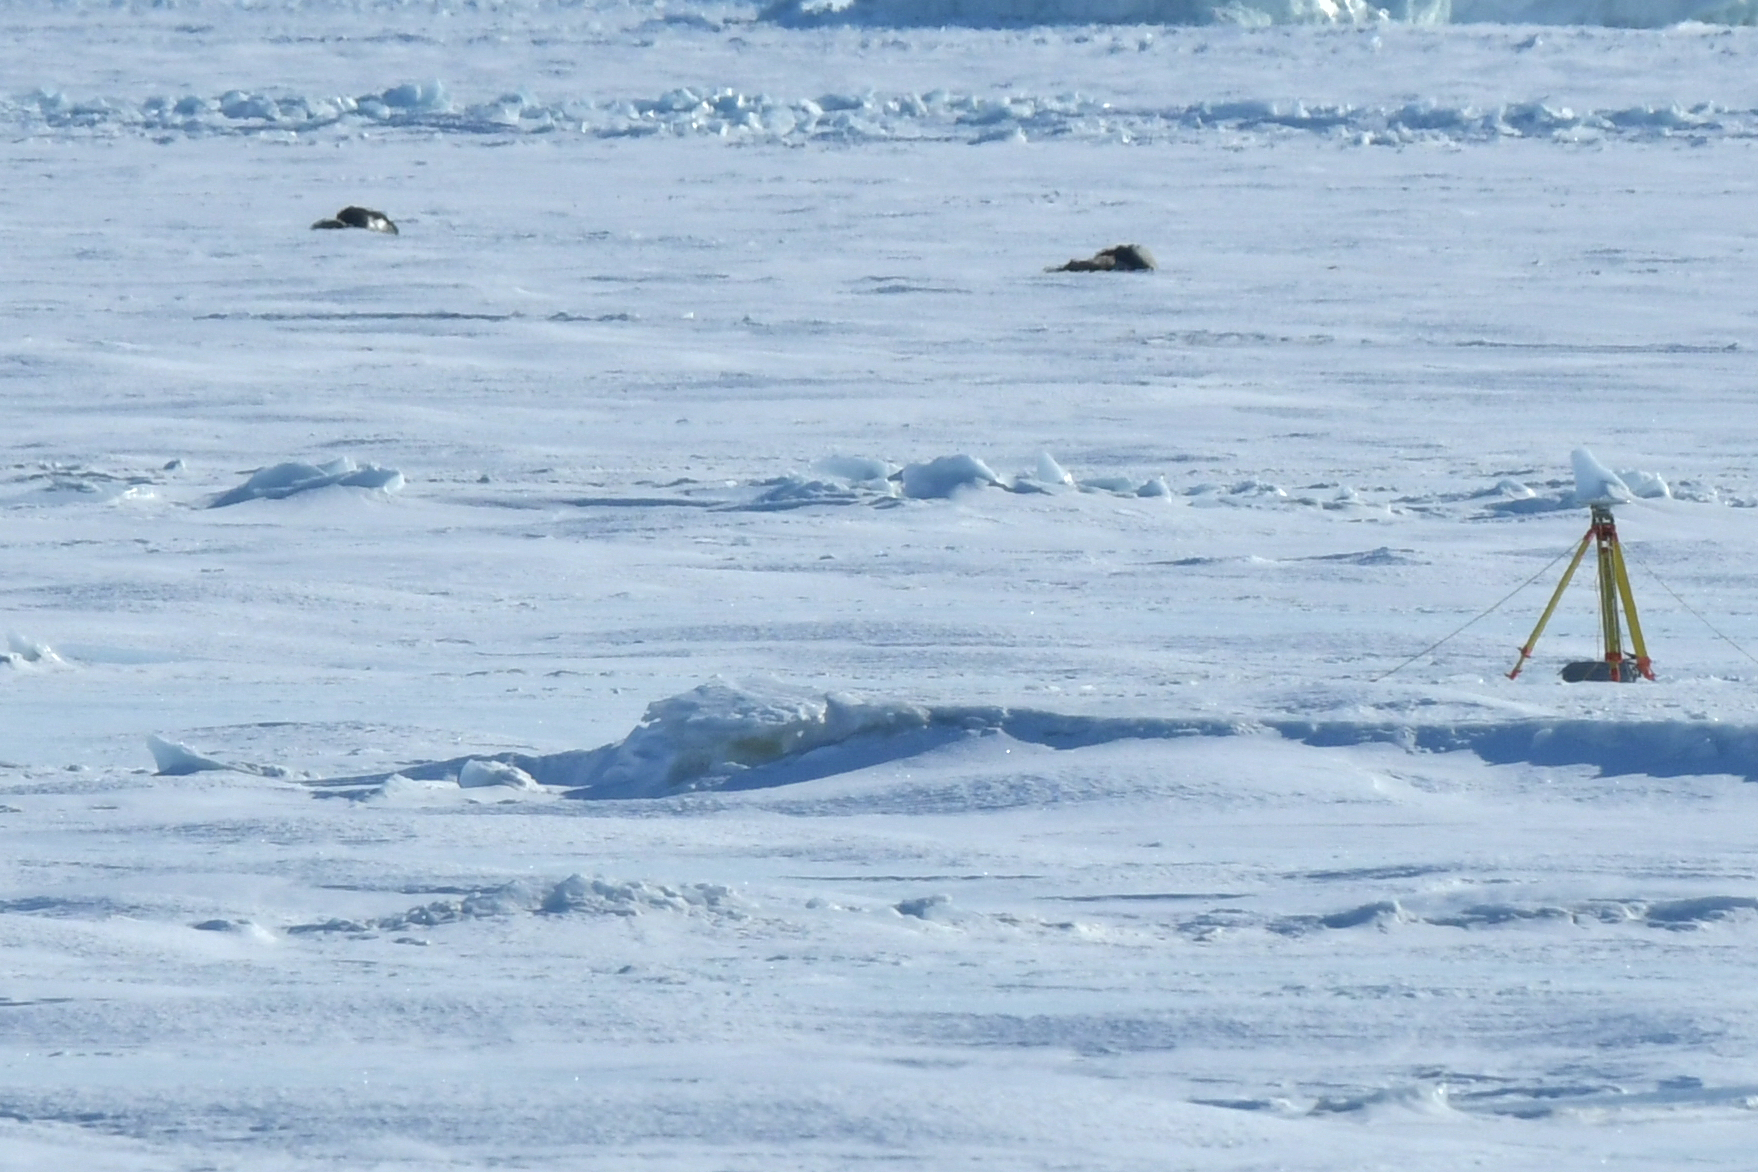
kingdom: Animalia
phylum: Chordata
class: Mammalia
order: Carnivora
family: Phocidae
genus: Leptonychotes
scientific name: Leptonychotes weddellii
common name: Weddell seal
